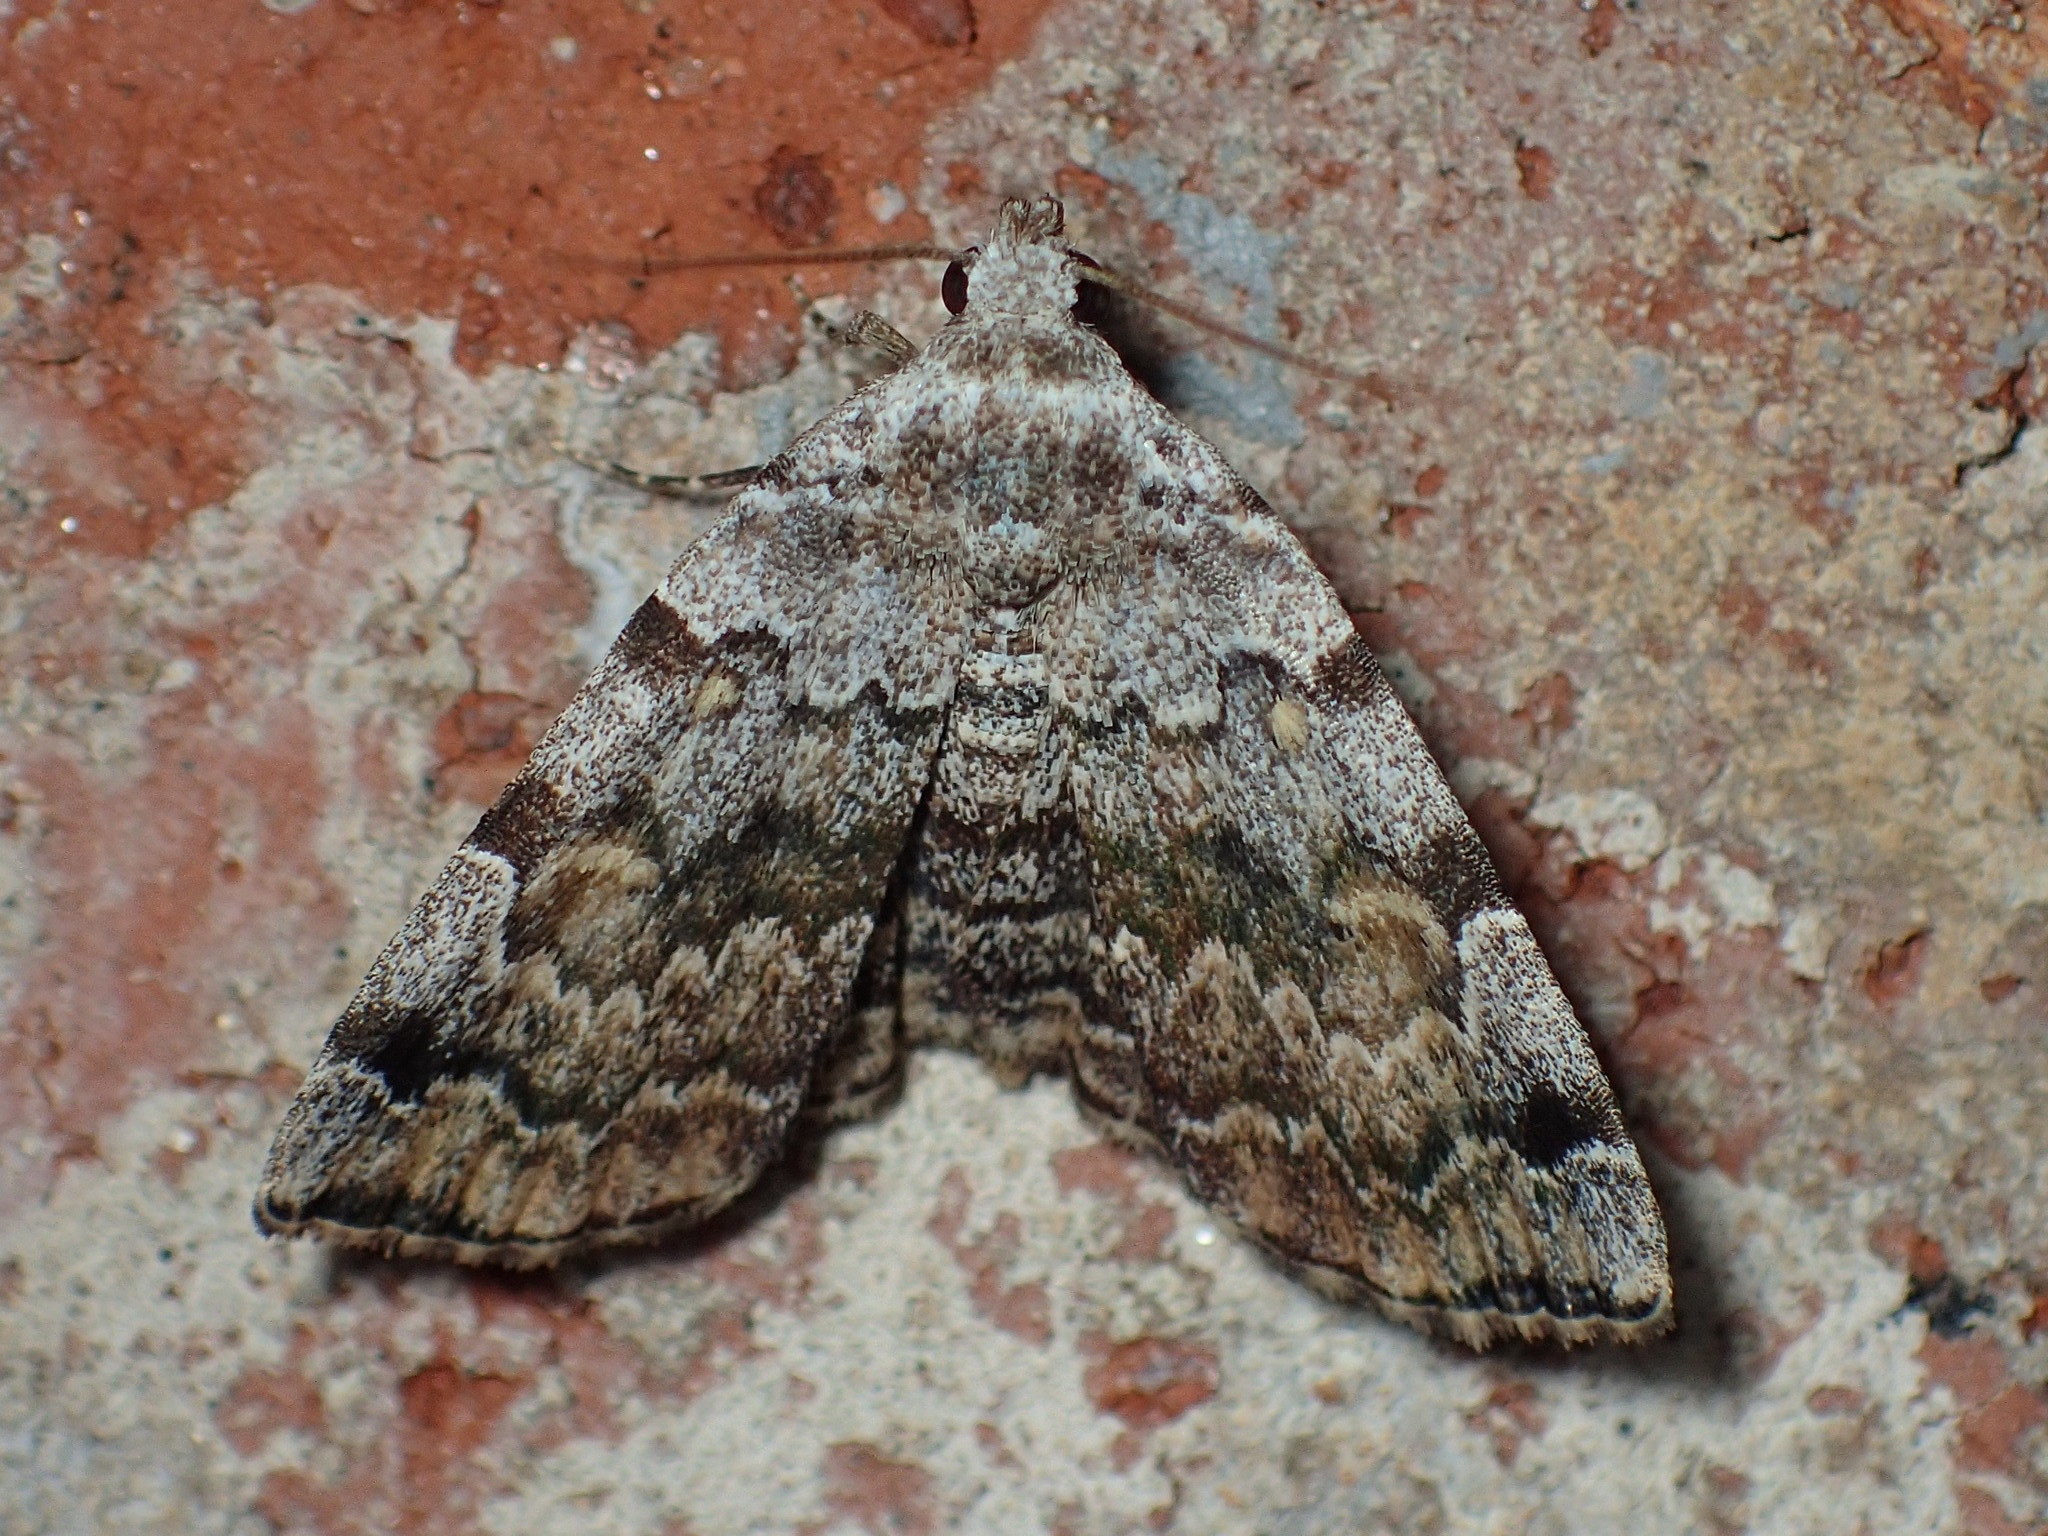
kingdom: Animalia
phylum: Arthropoda
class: Insecta
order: Lepidoptera
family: Erebidae
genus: Idia
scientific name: Idia americalis
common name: American idia moth
